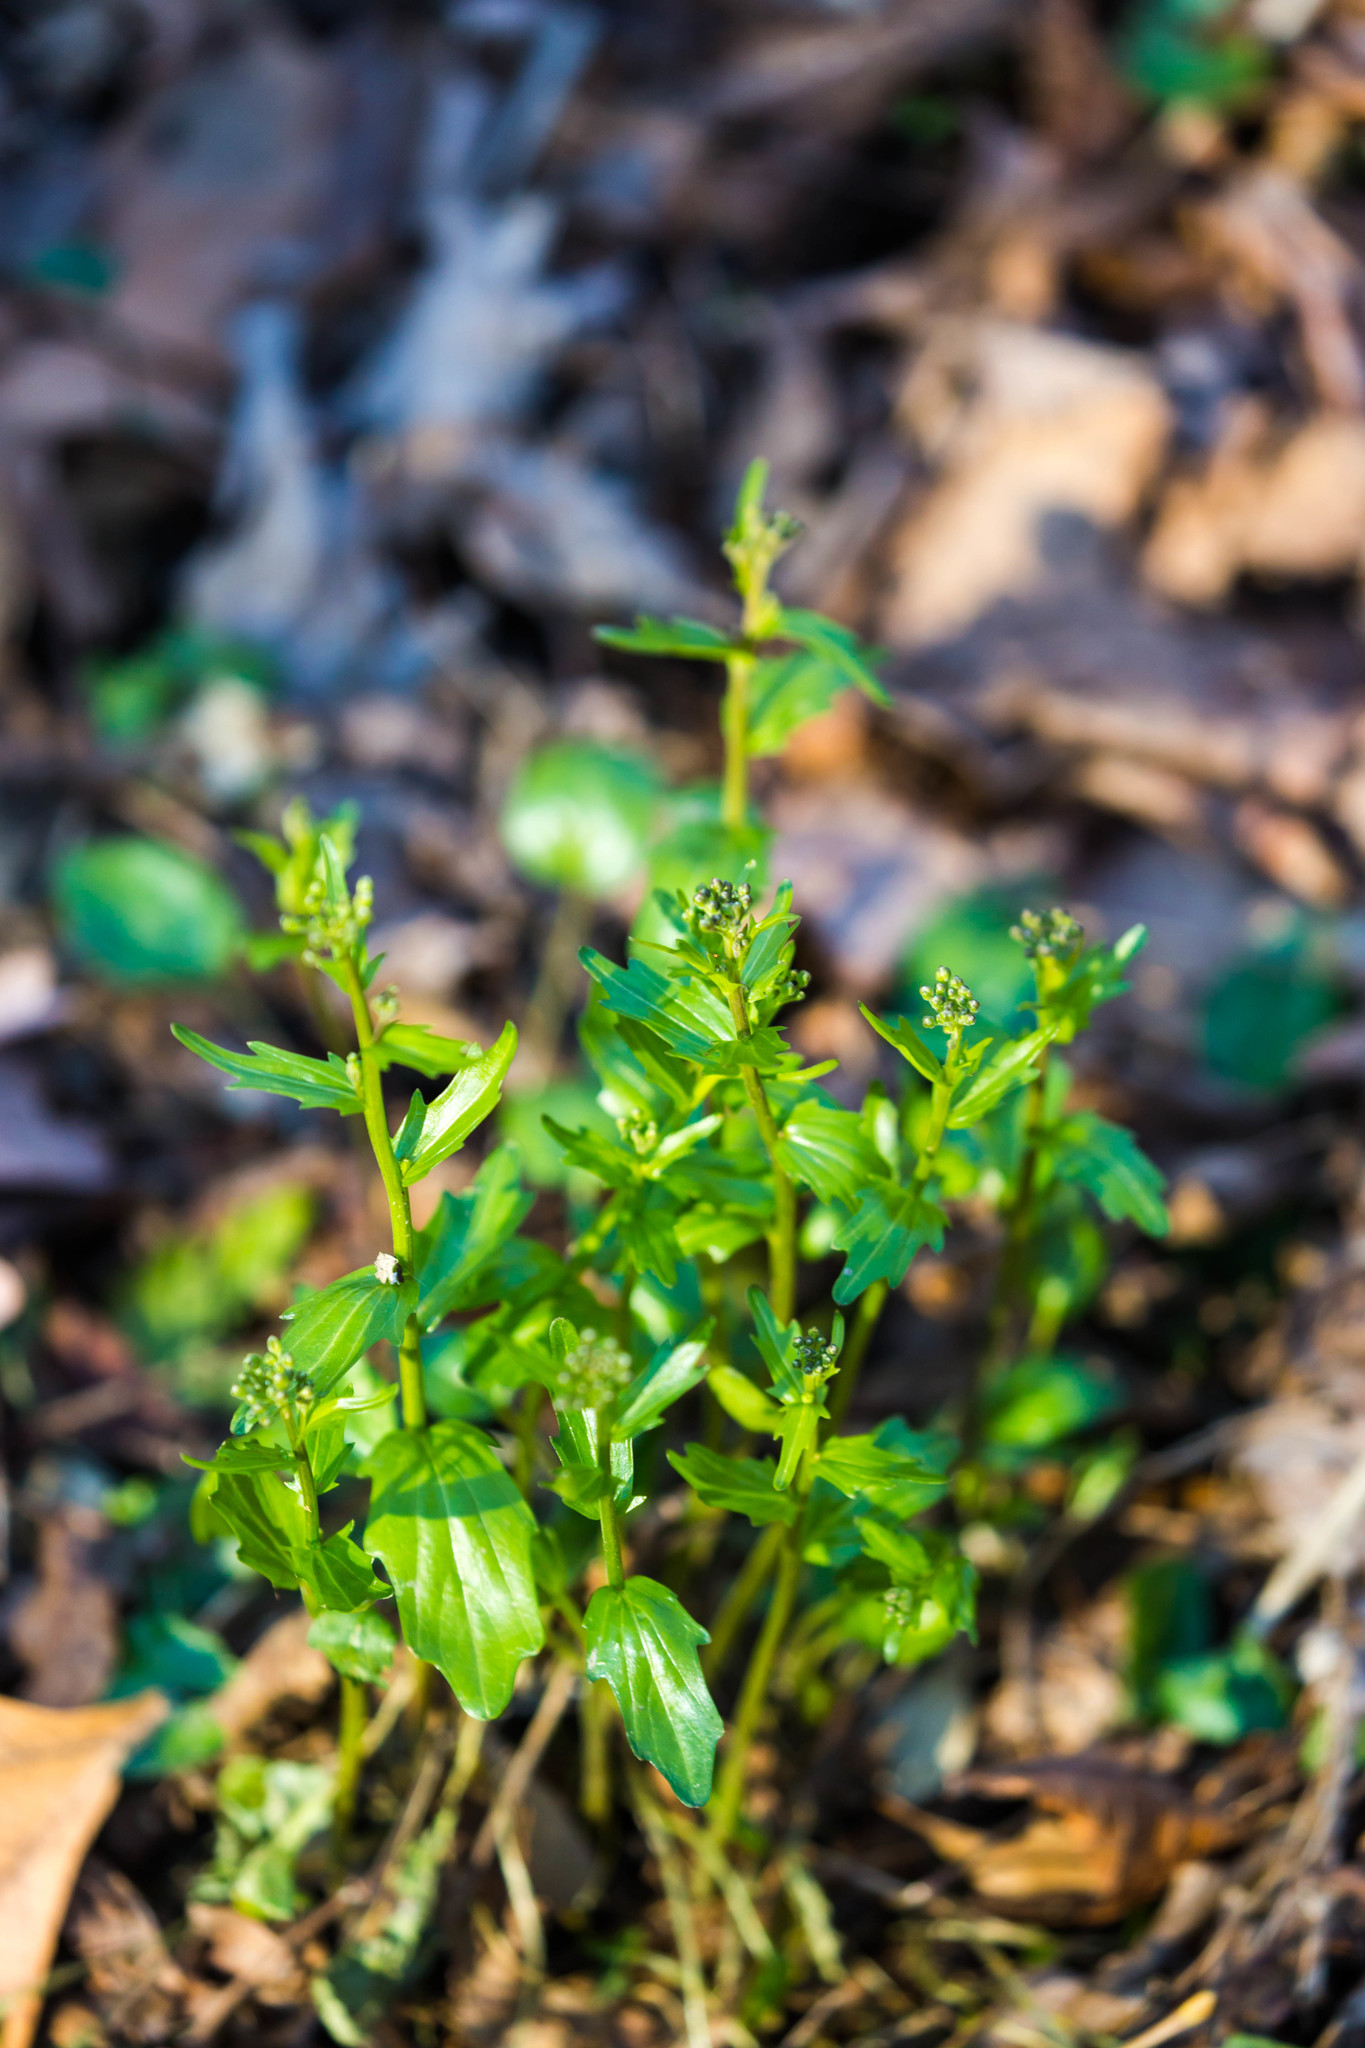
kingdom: Plantae
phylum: Tracheophyta
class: Magnoliopsida
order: Brassicales
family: Brassicaceae
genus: Cardamine
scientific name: Cardamine bulbosa
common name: Spring cress
